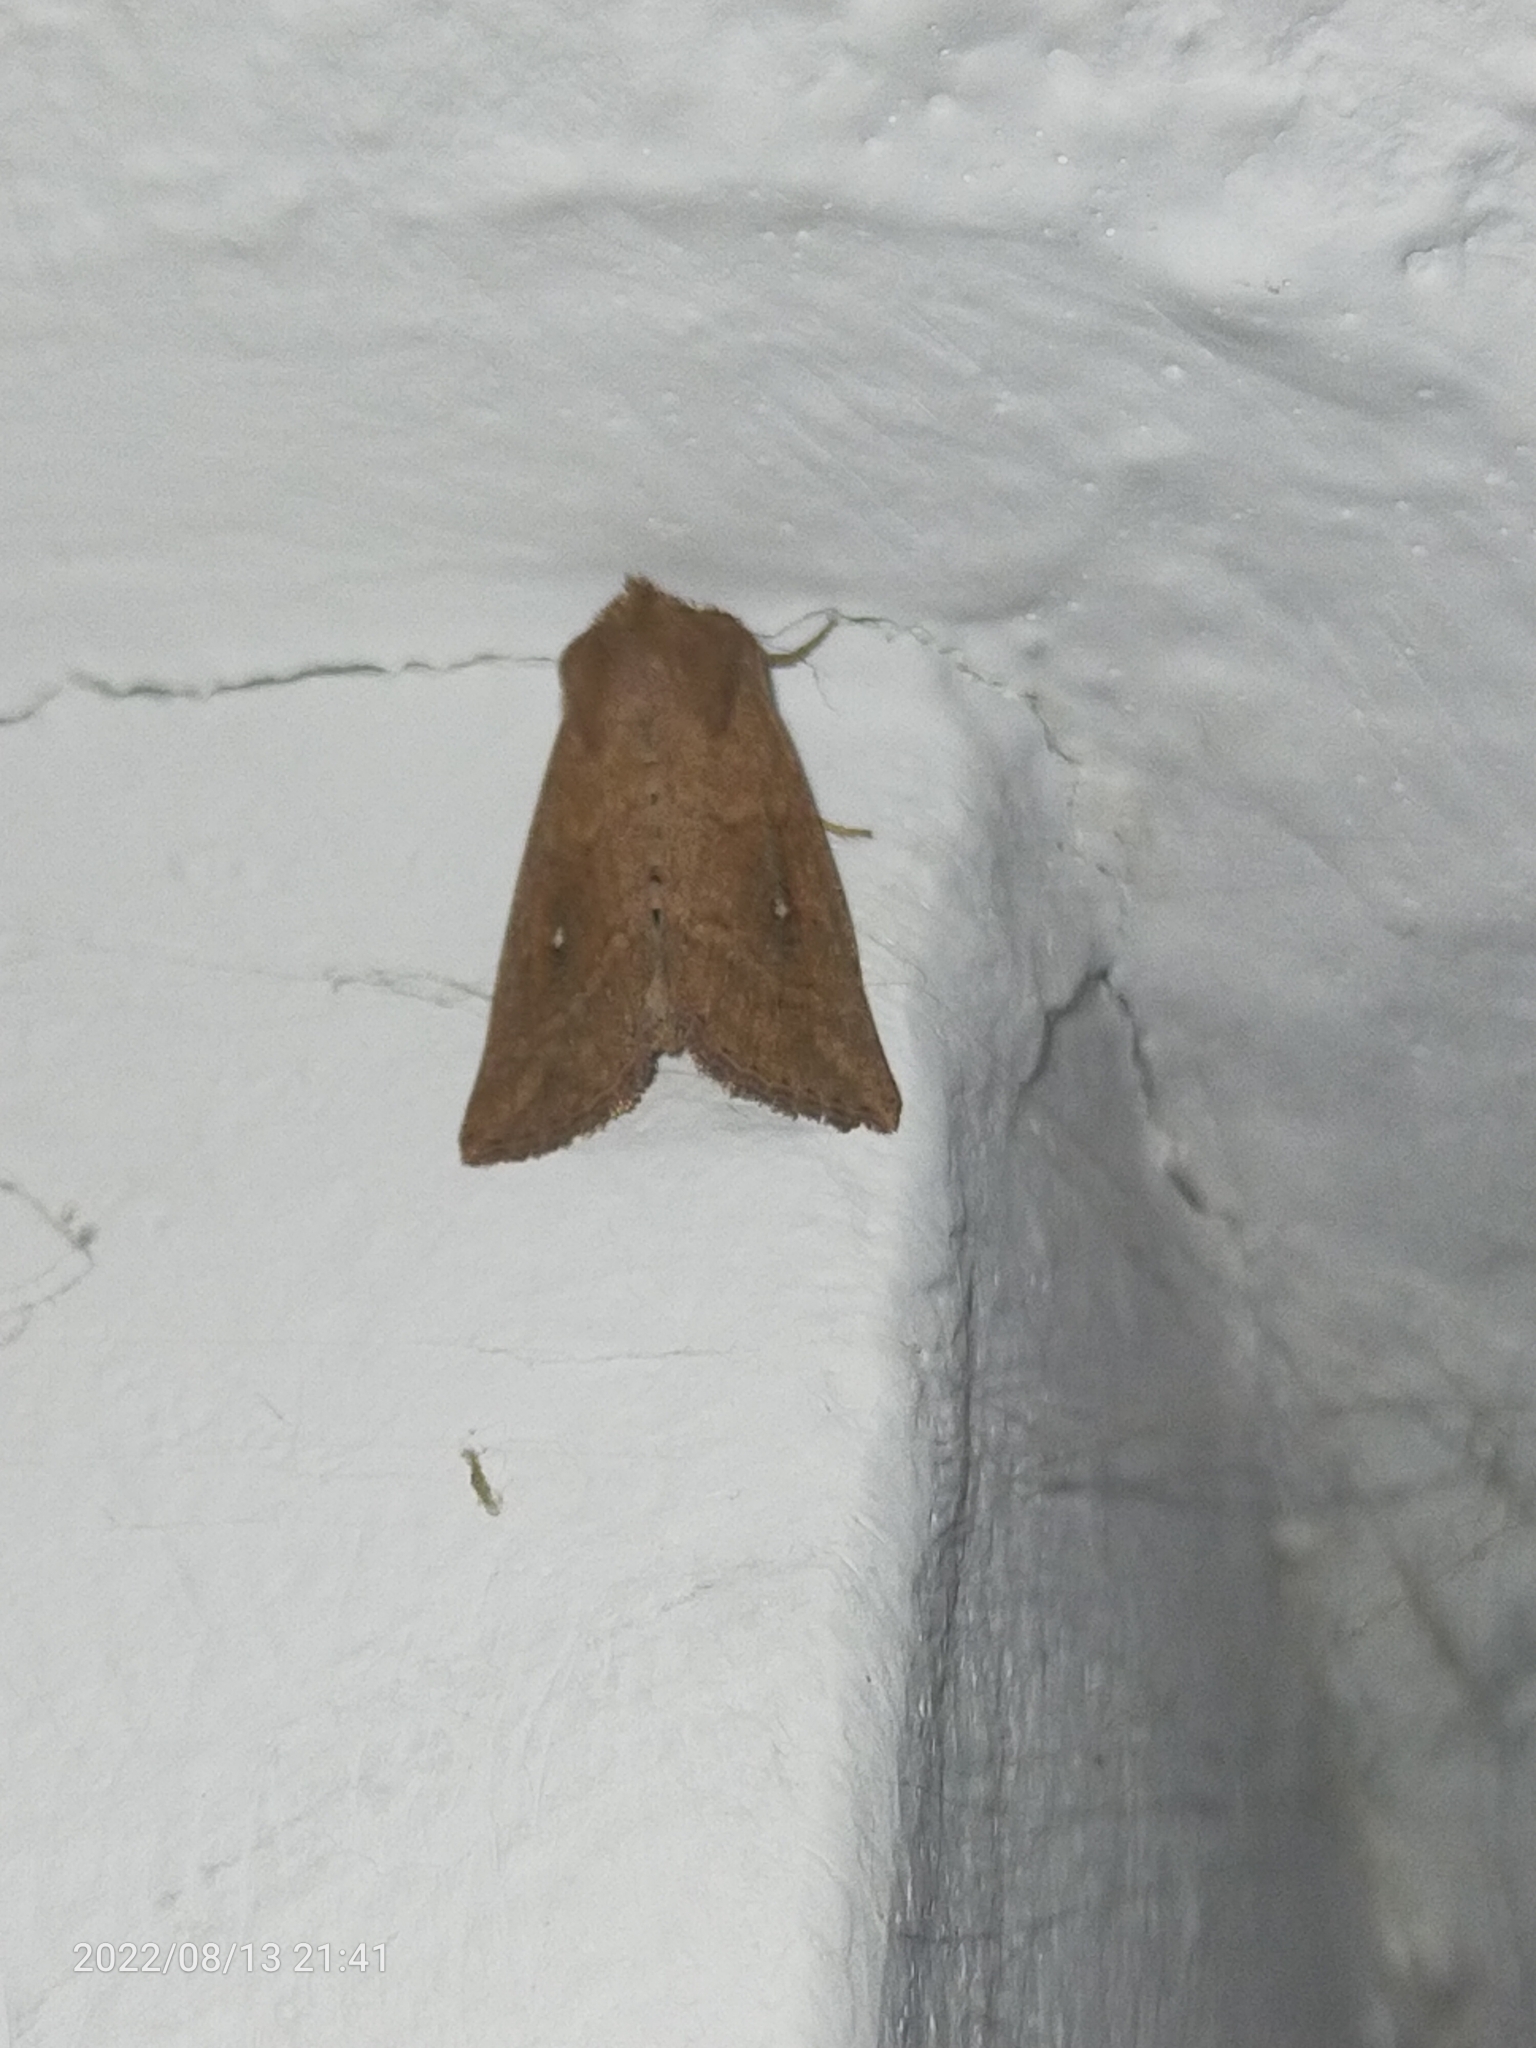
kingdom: Animalia
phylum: Arthropoda
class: Insecta
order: Lepidoptera
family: Noctuidae
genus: Mythimna
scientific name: Mythimna albipuncta
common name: White-point
